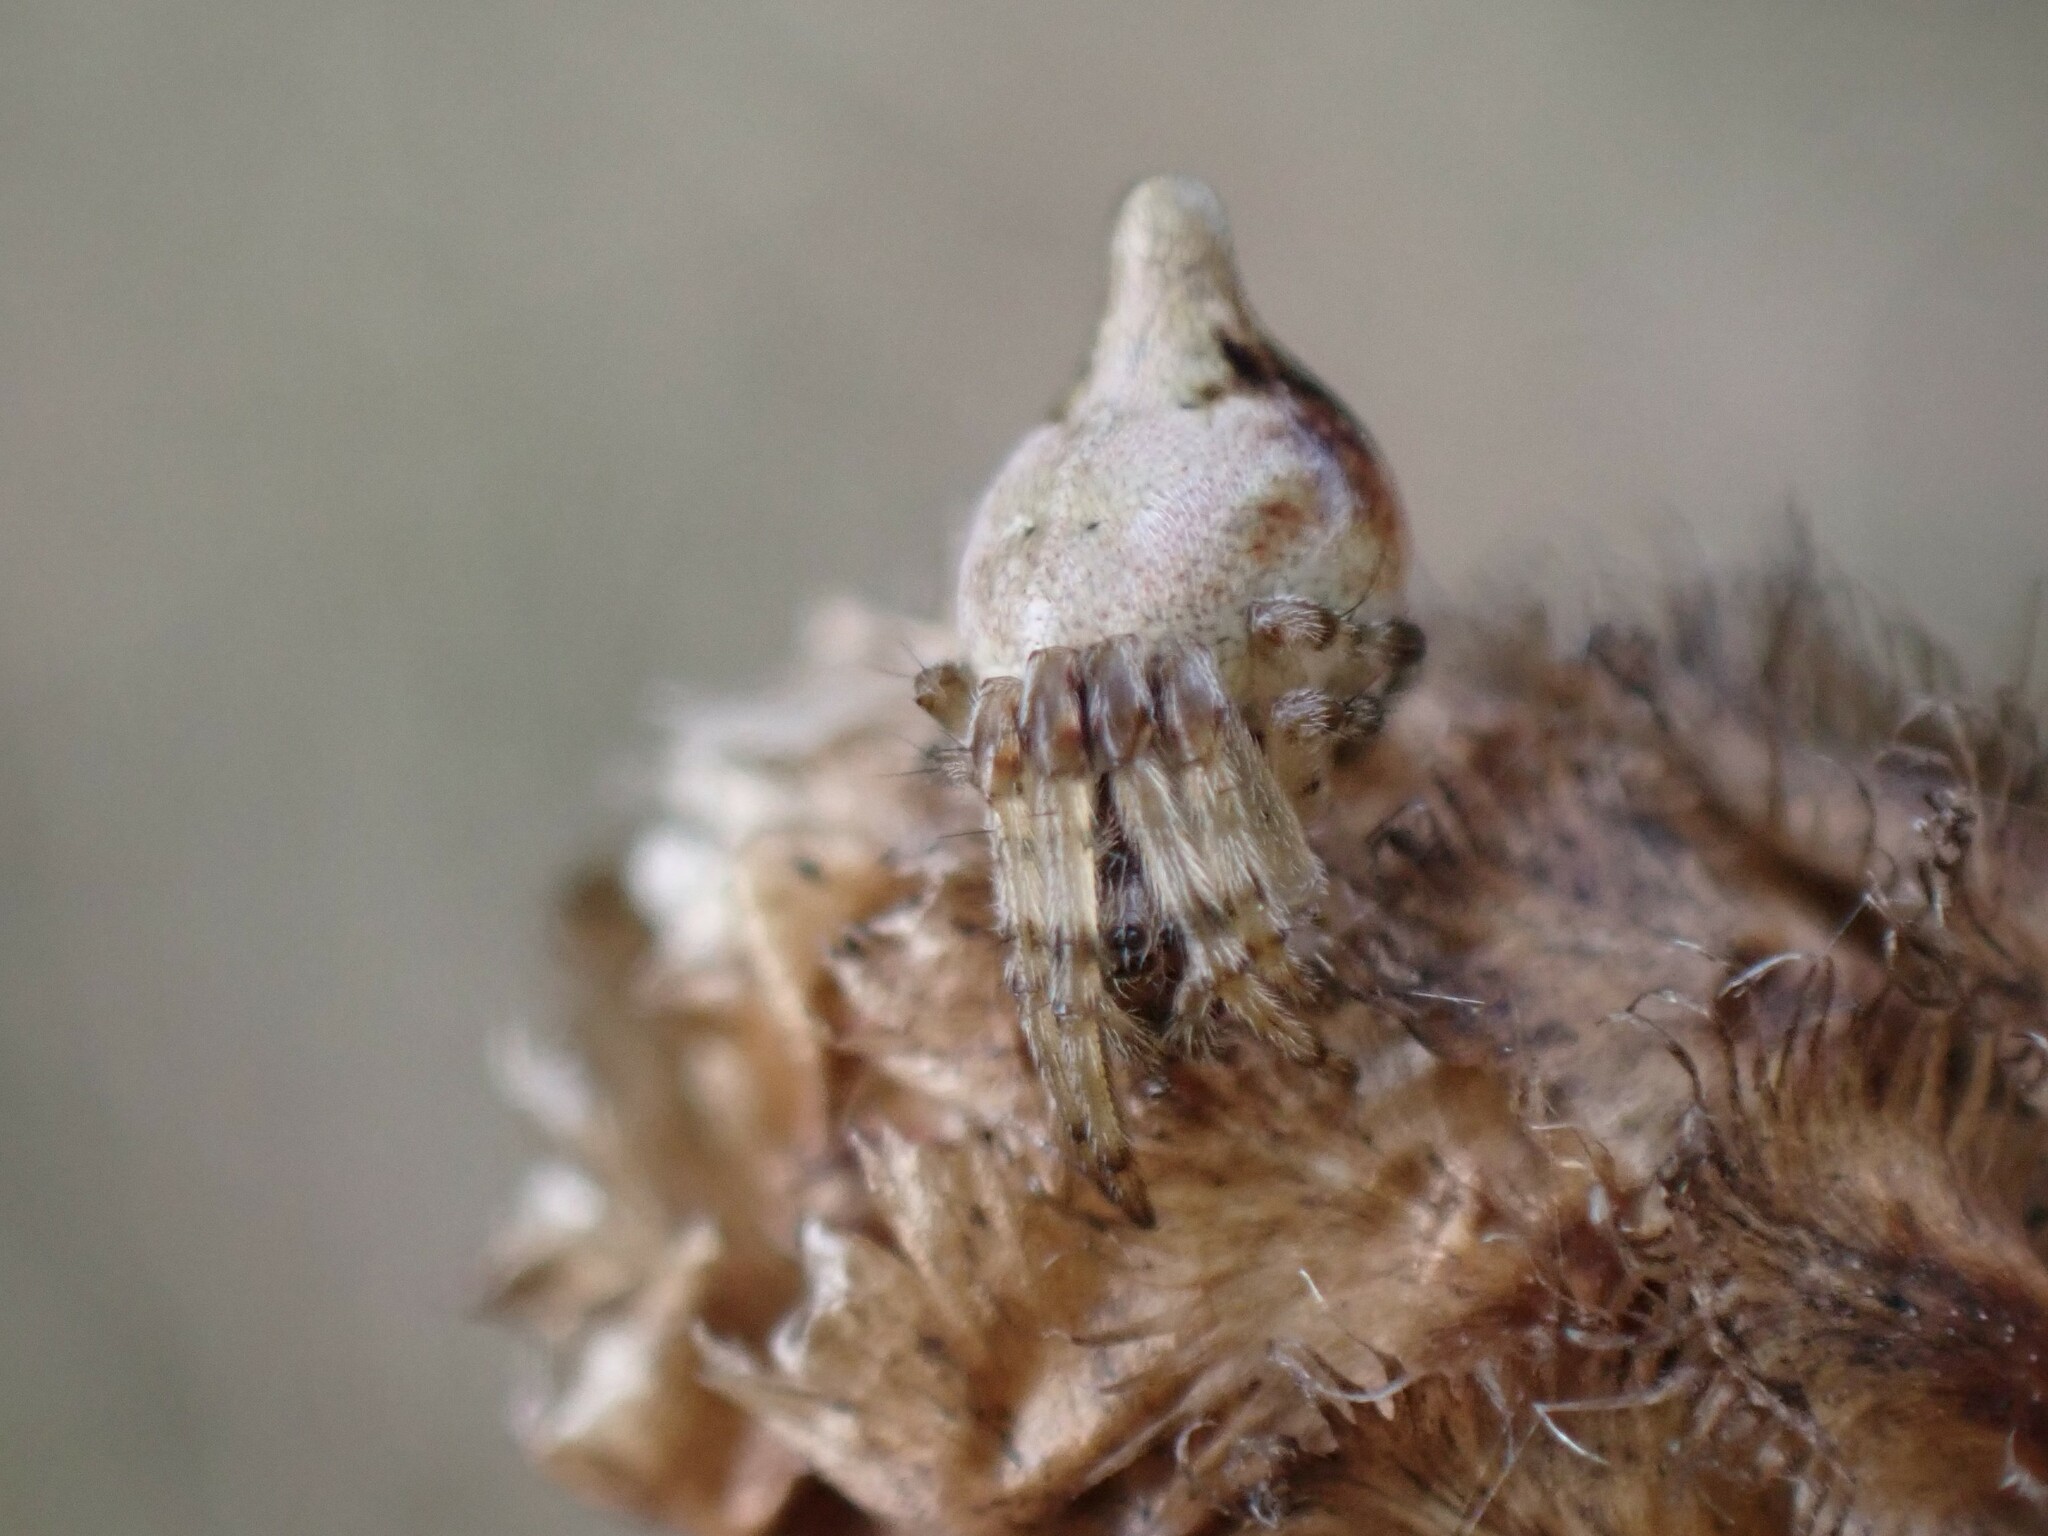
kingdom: Animalia
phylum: Arthropoda
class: Arachnida
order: Araneae
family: Araneidae
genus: Cyclosa
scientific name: Cyclosa conica
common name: Conical trashline orbweaver
